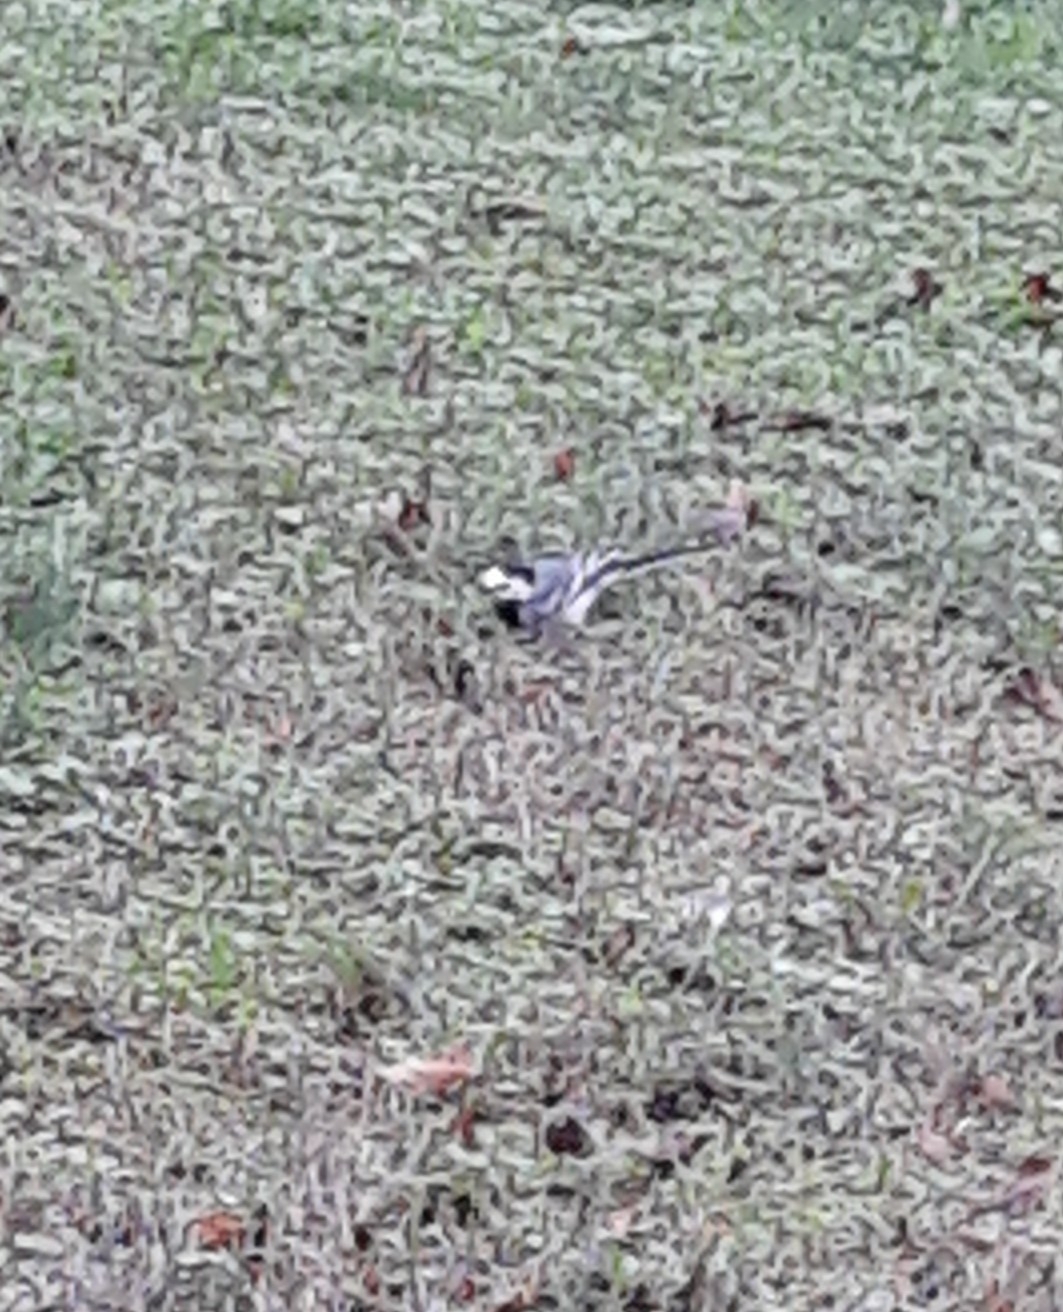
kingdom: Animalia
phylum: Chordata
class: Aves
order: Passeriformes
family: Motacillidae
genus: Motacilla
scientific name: Motacilla alba
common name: White wagtail
